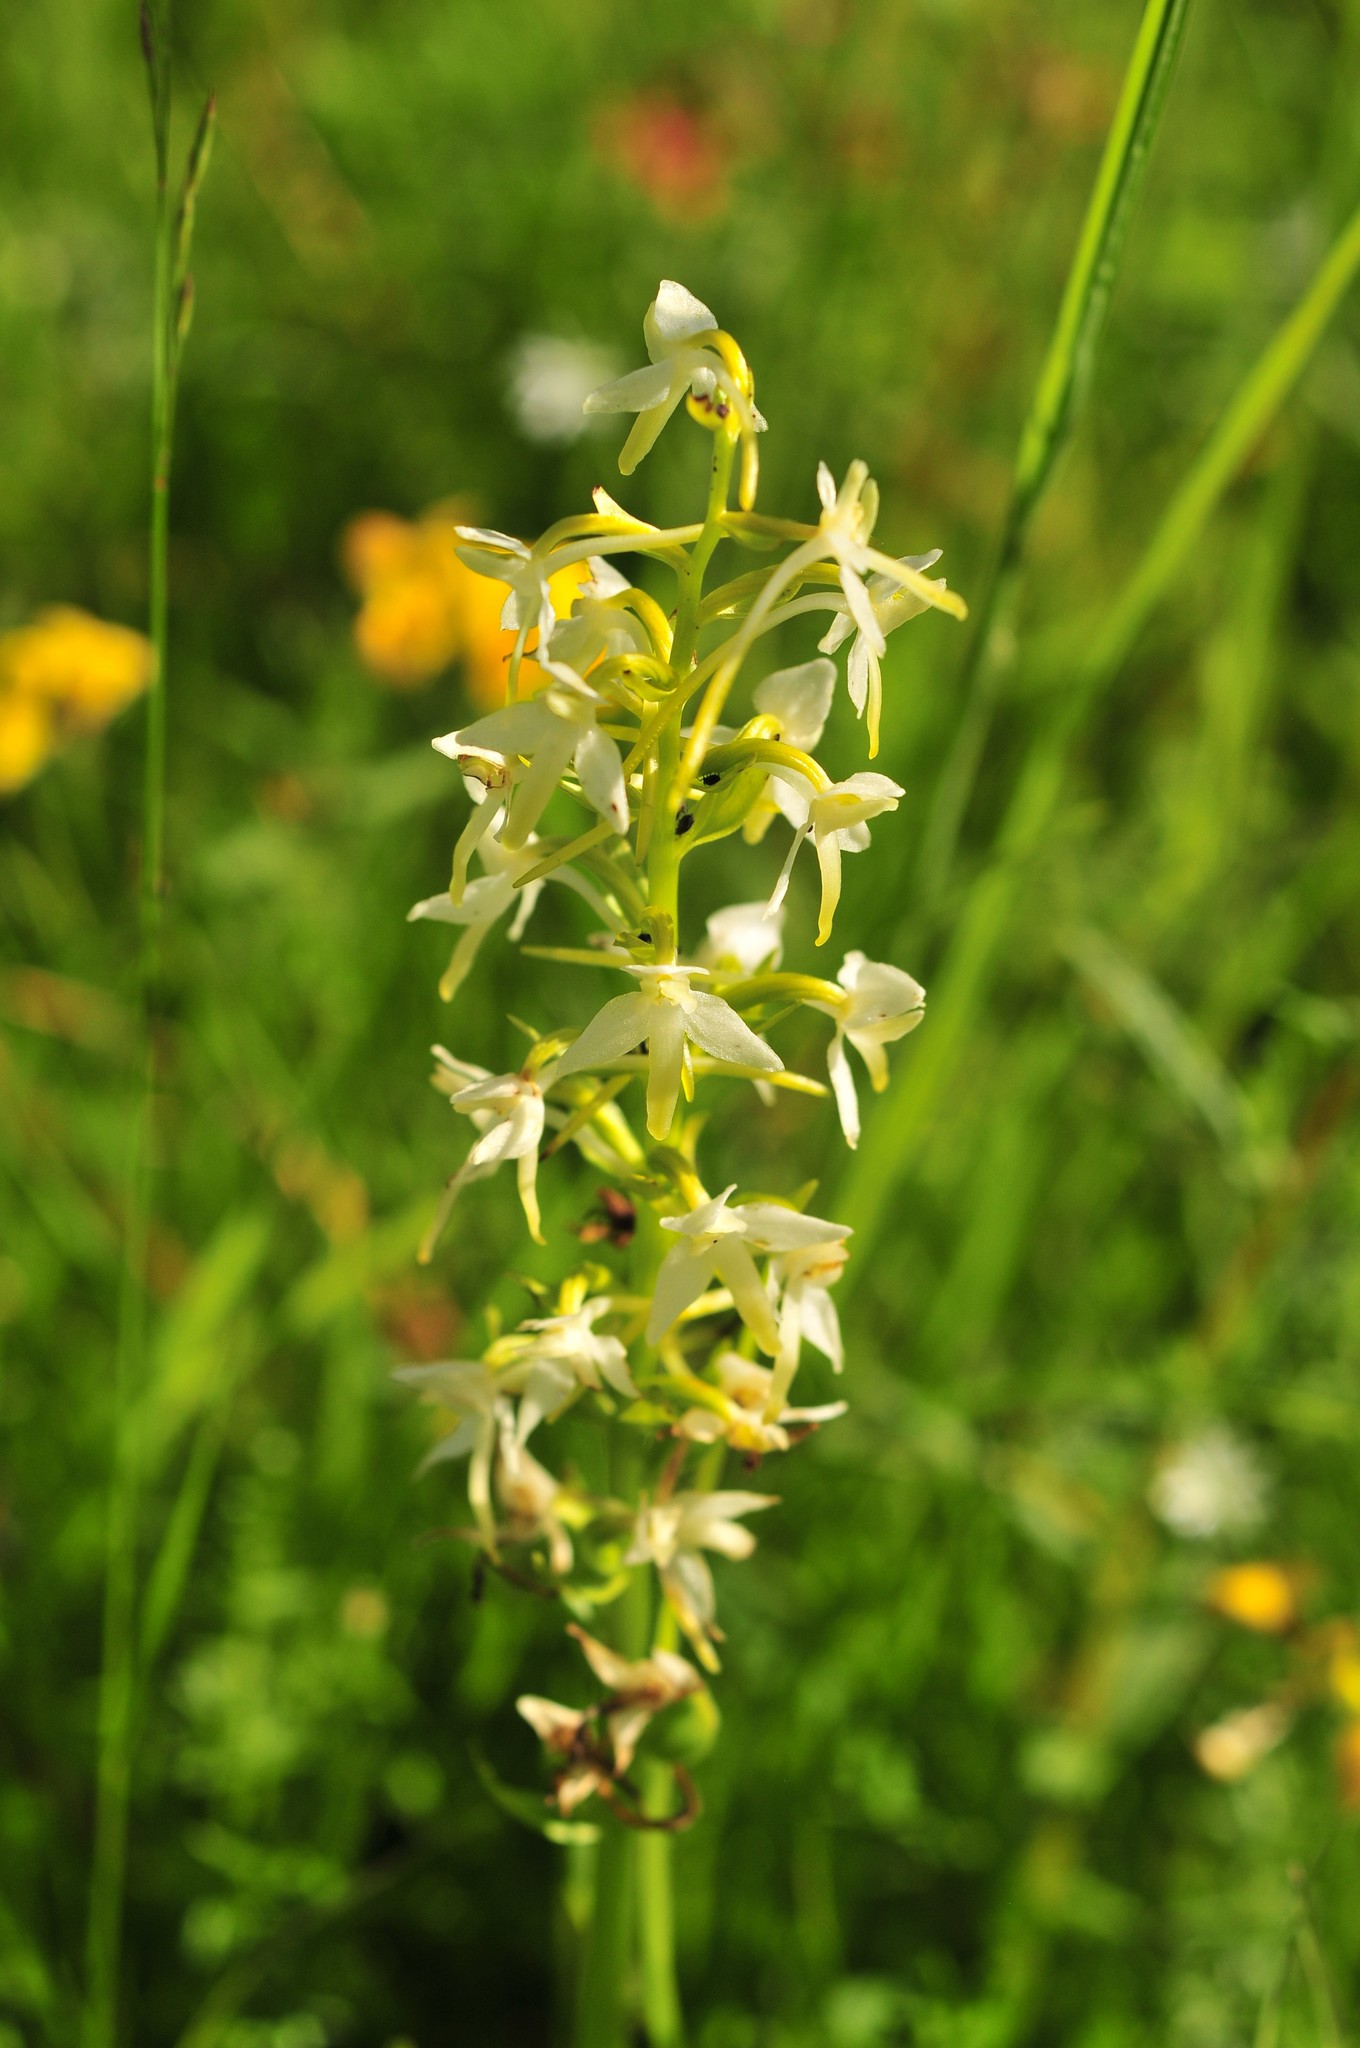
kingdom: Plantae
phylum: Tracheophyta
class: Liliopsida
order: Asparagales
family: Orchidaceae
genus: Platanthera
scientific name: Platanthera bifolia
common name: Lesser butterfly-orchid
